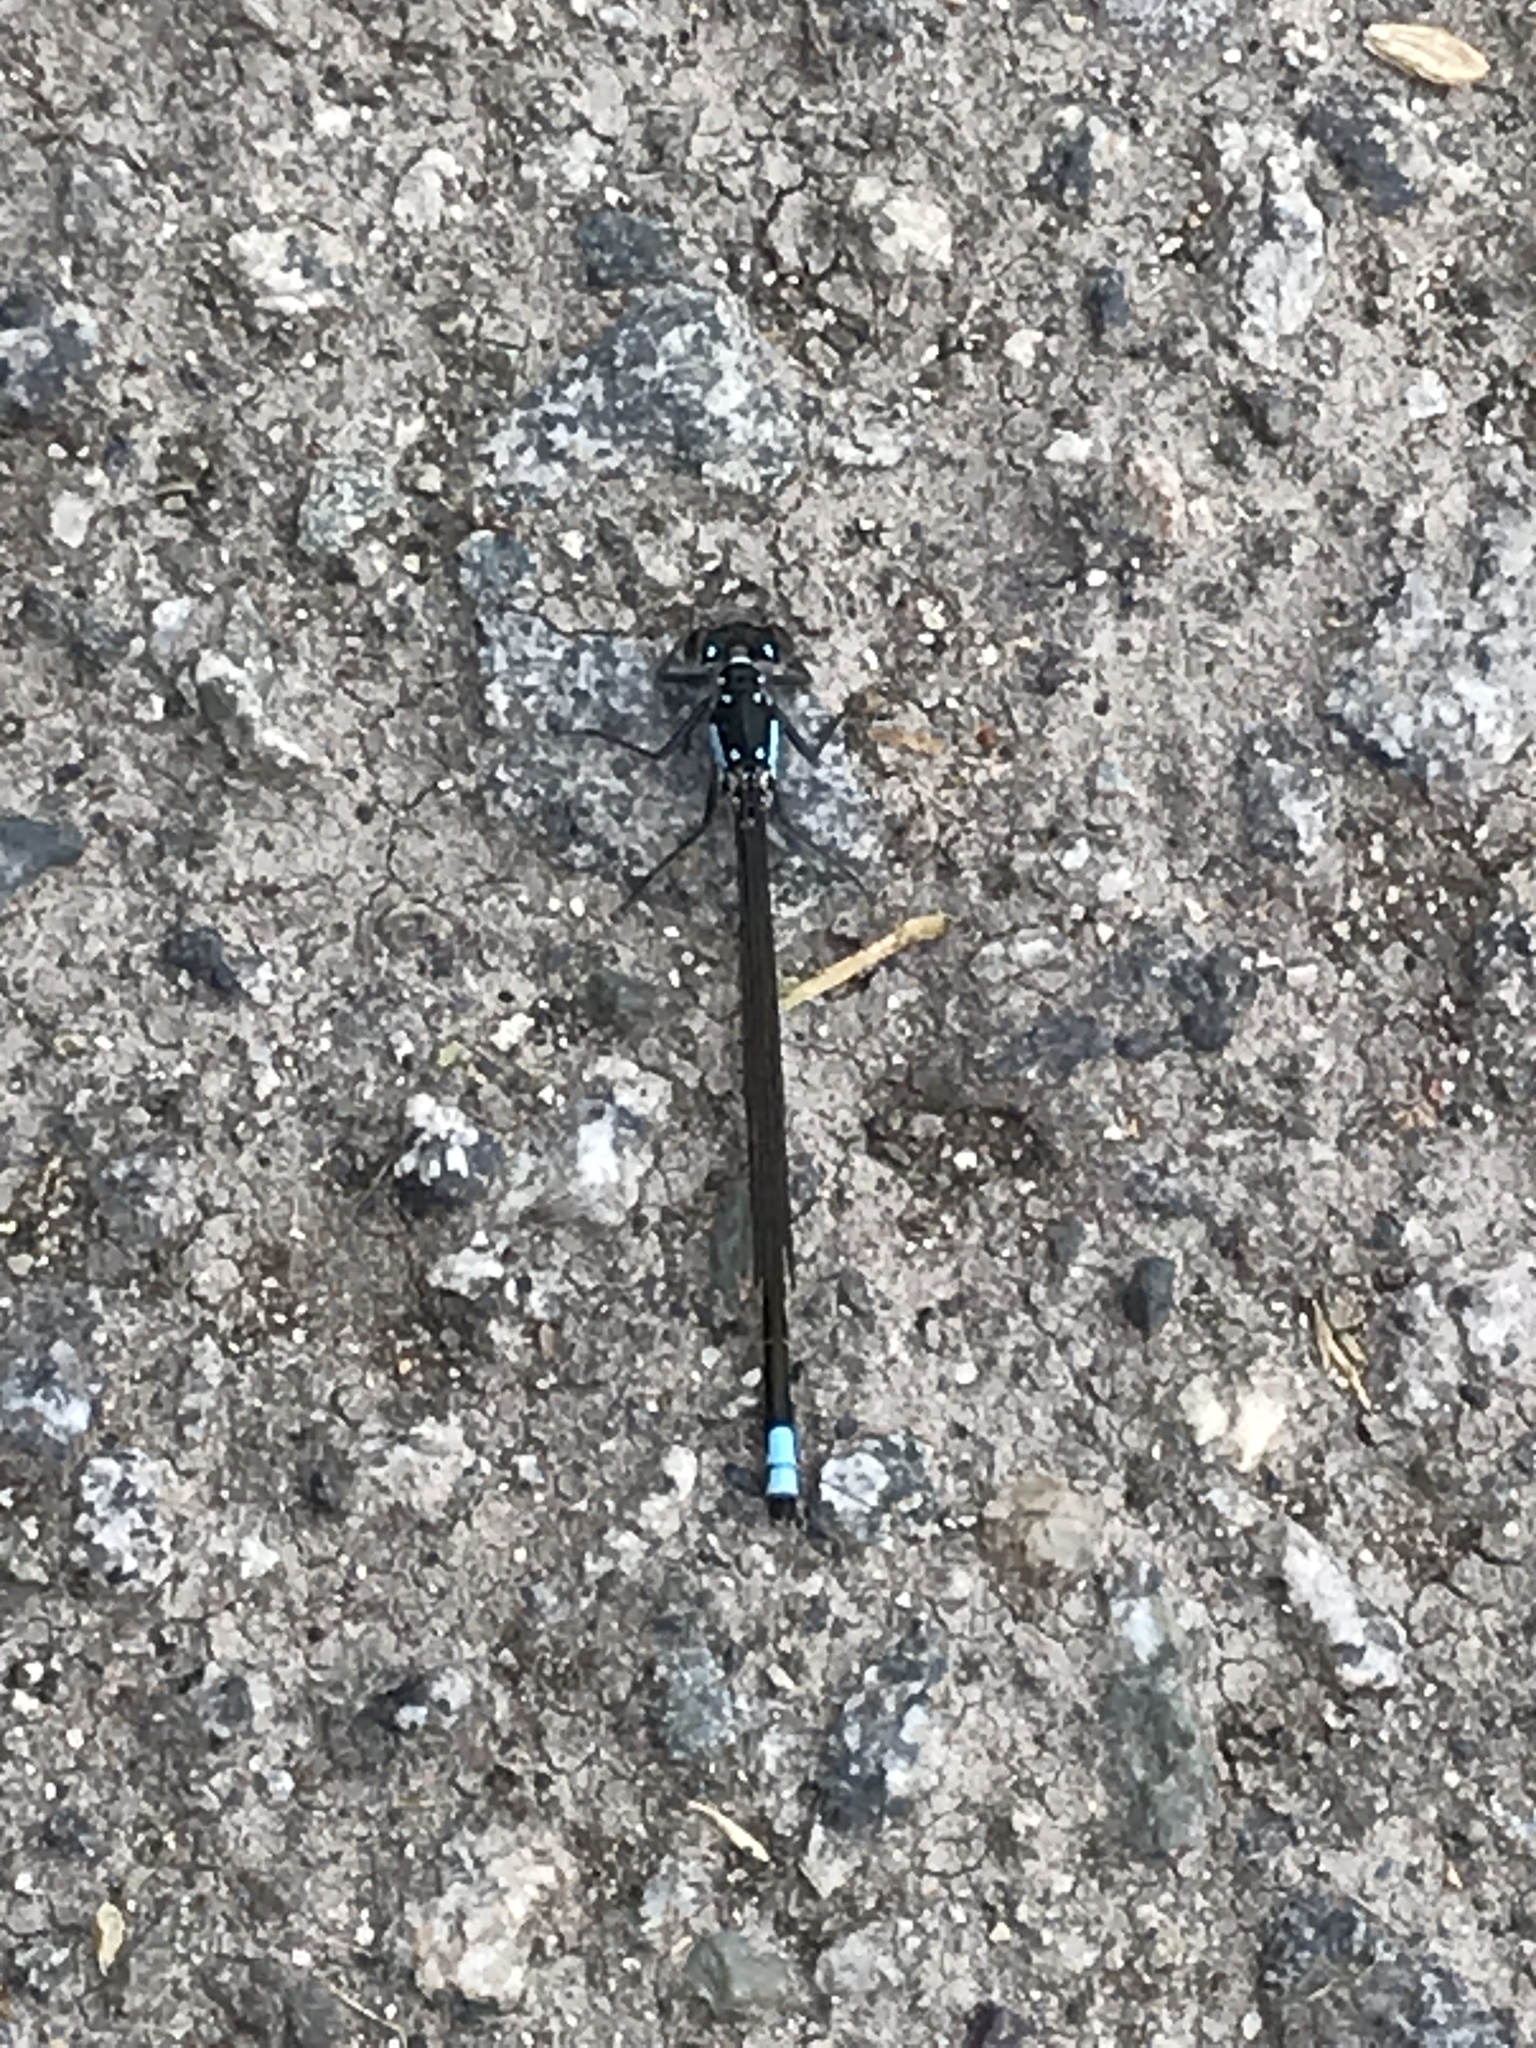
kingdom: Animalia
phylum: Arthropoda
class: Insecta
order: Odonata
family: Coenagrionidae
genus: Ischnura
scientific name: Ischnura cervula
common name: Pacific forktail
